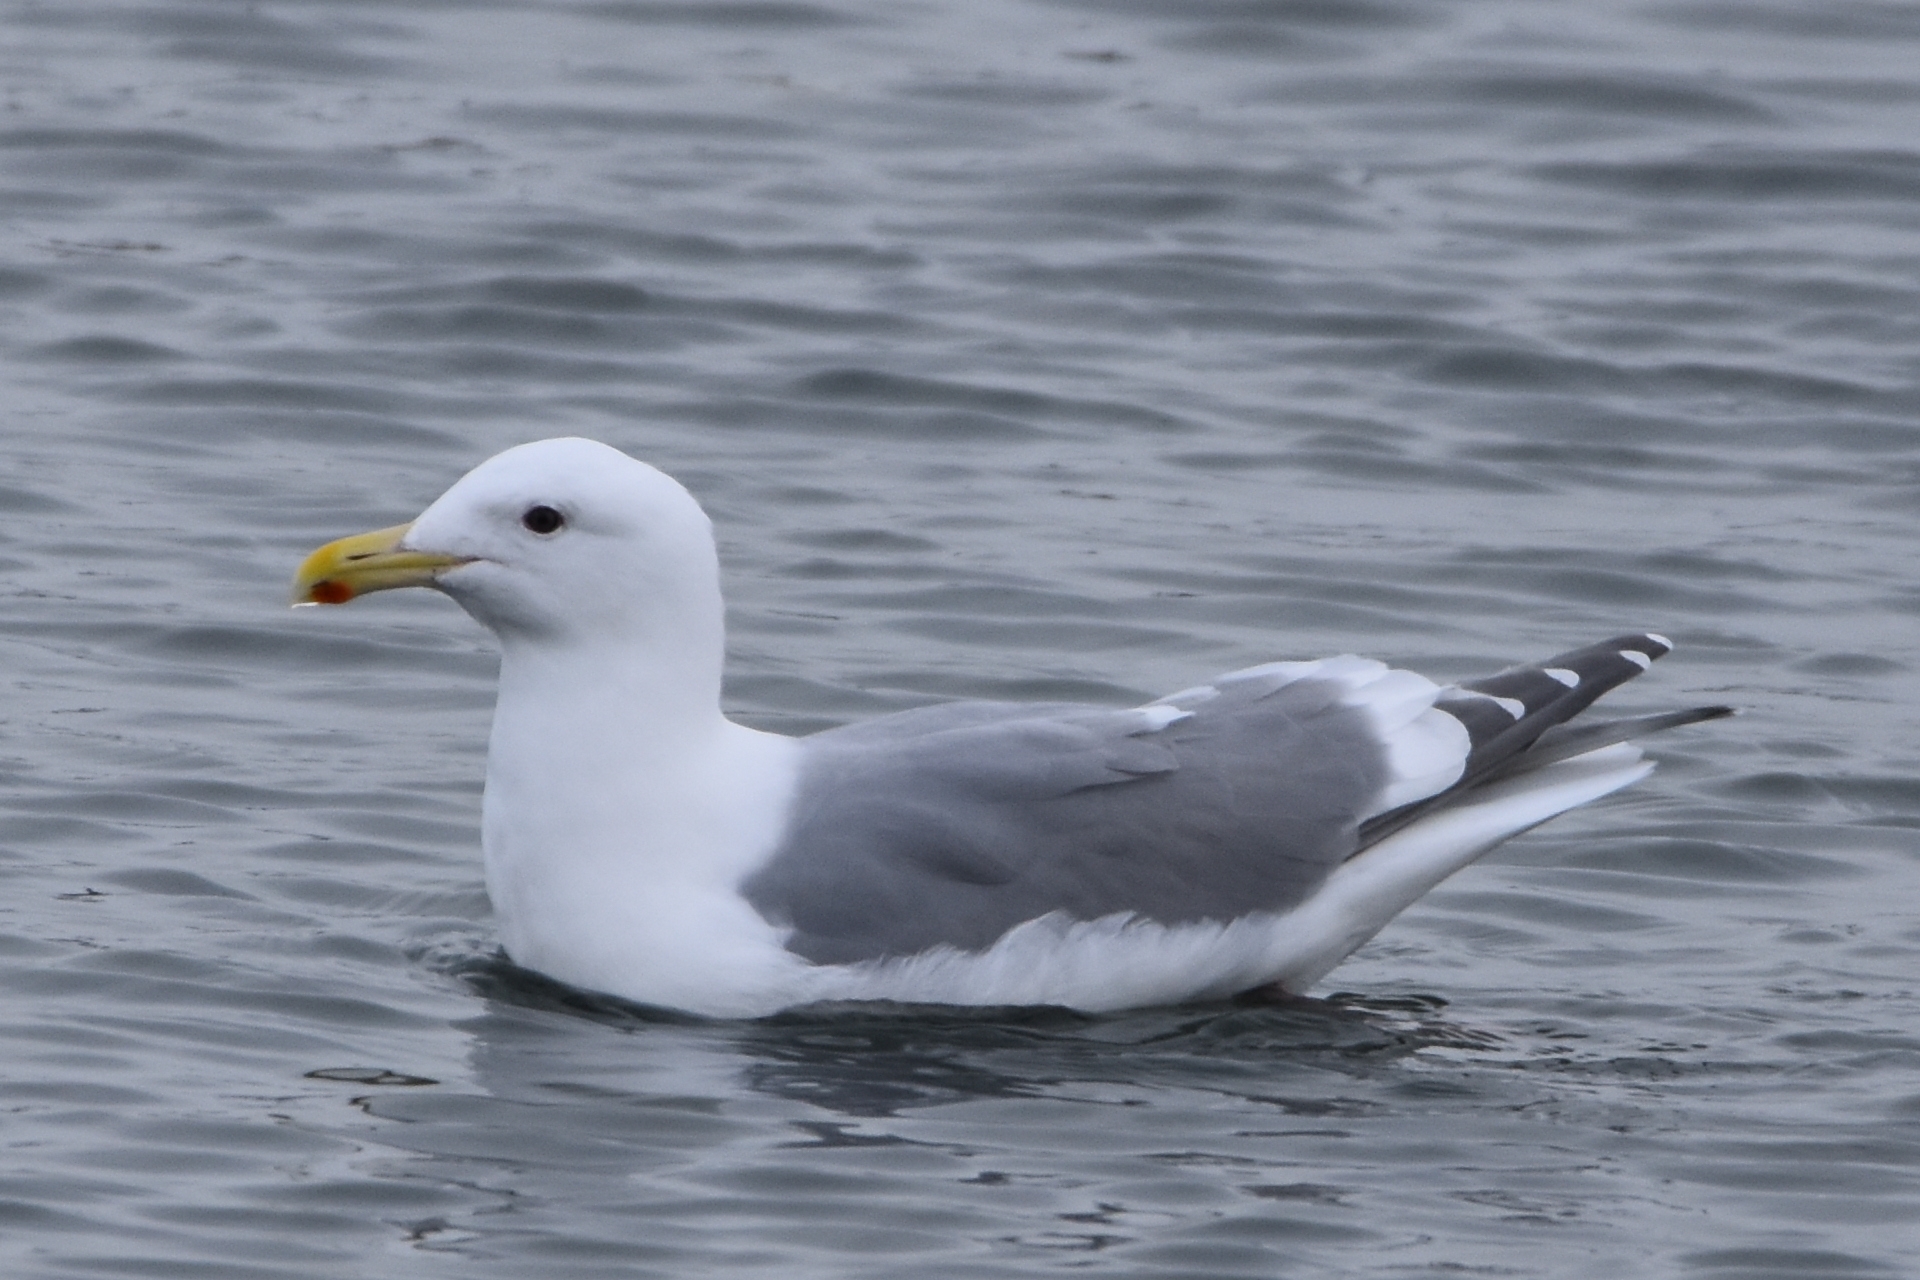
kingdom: Animalia
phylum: Chordata
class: Aves
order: Charadriiformes
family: Laridae
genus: Larus
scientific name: Larus
